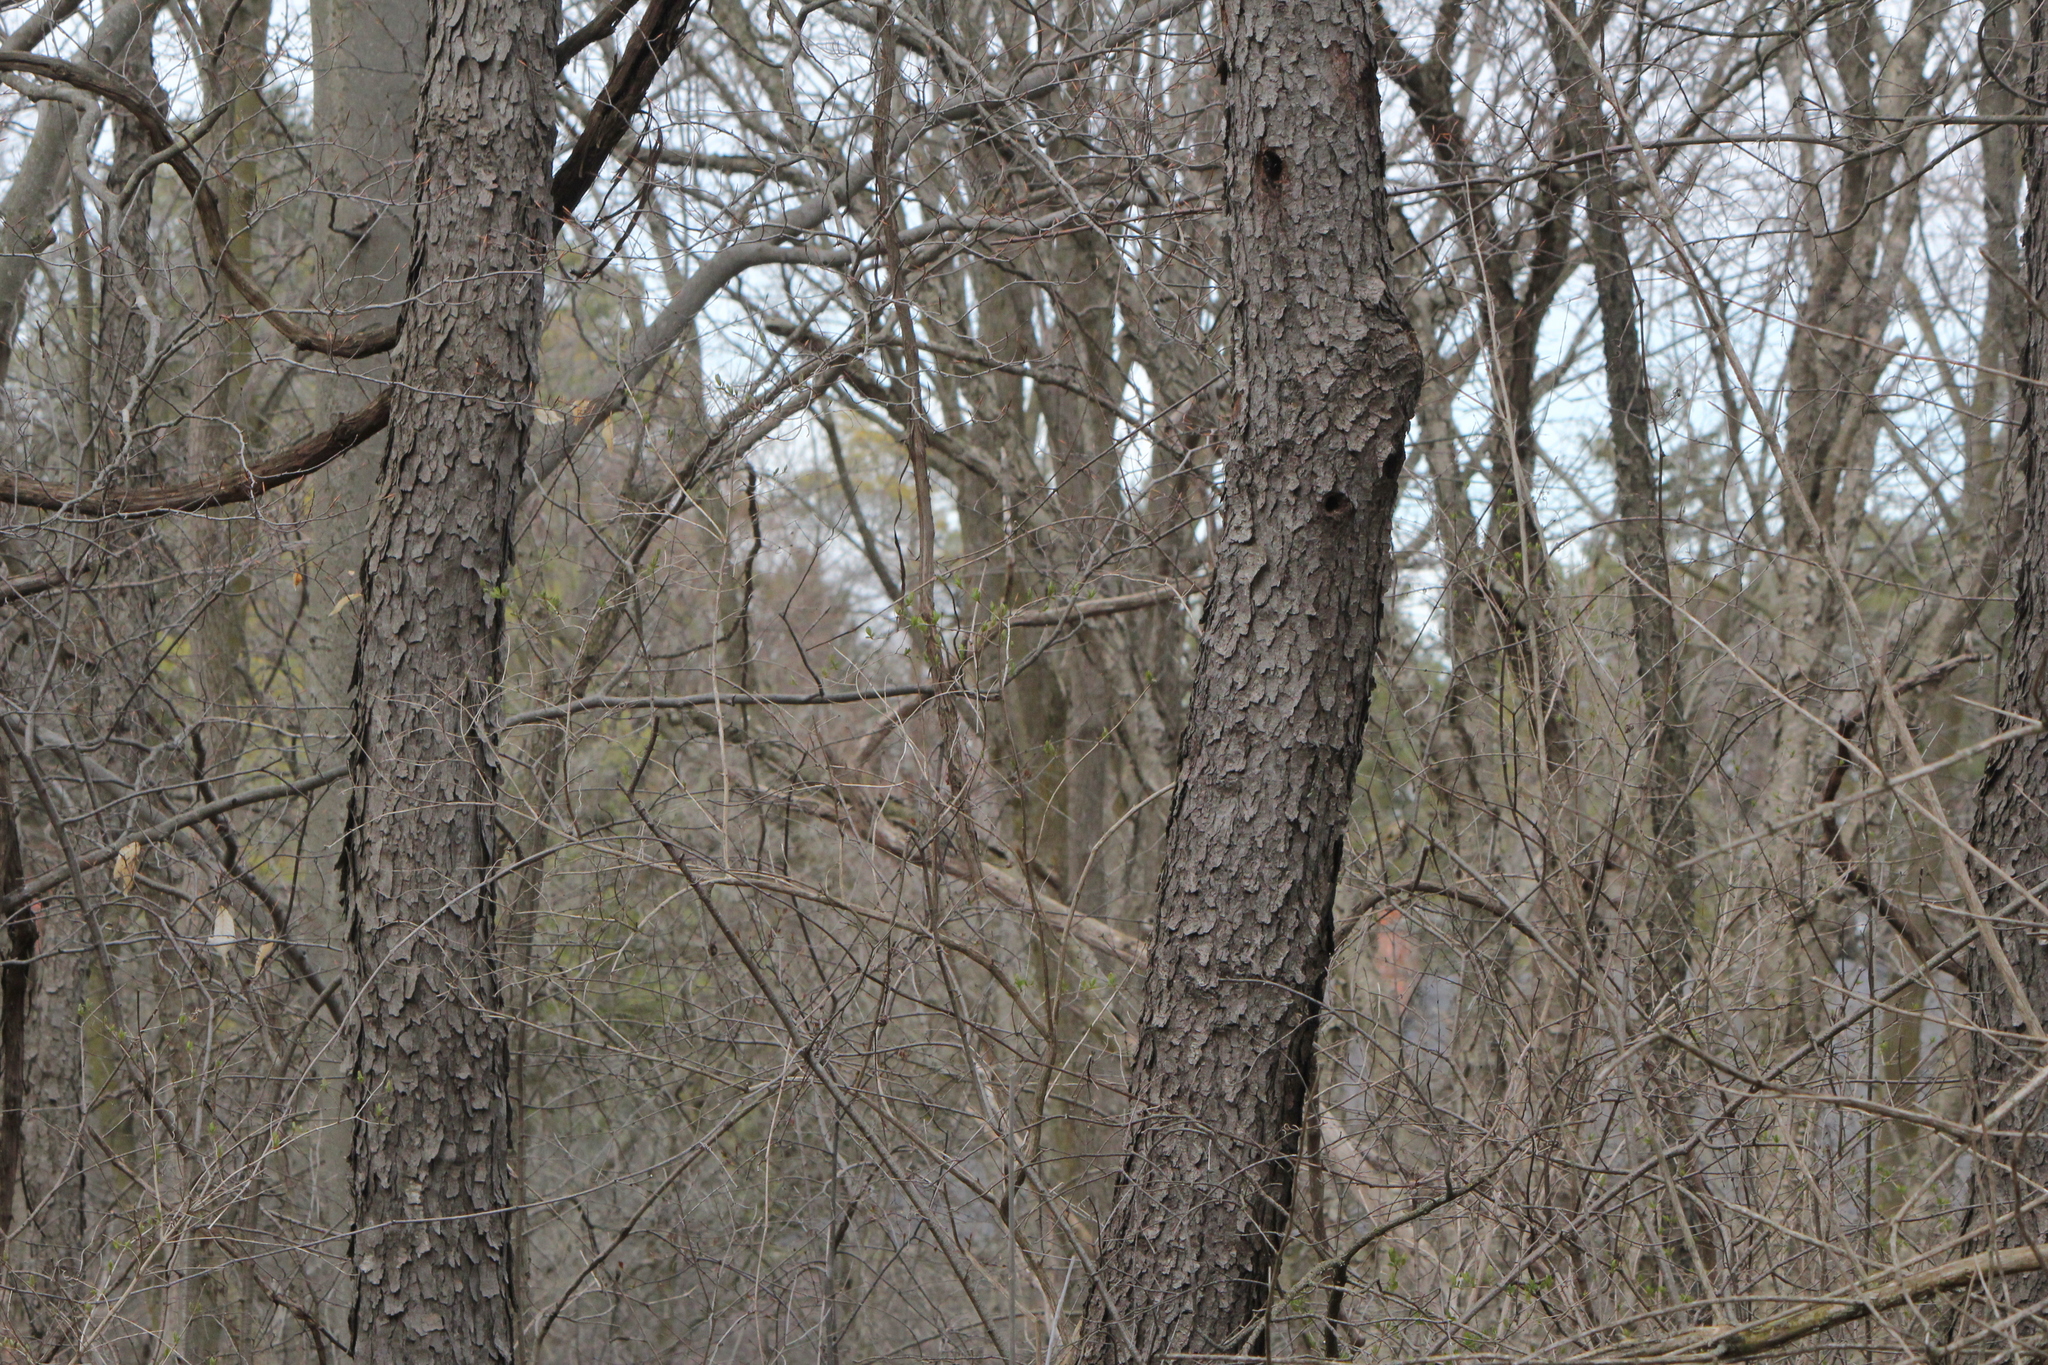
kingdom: Plantae
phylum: Tracheophyta
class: Magnoliopsida
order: Rosales
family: Rosaceae
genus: Prunus
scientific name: Prunus serotina
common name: Black cherry
